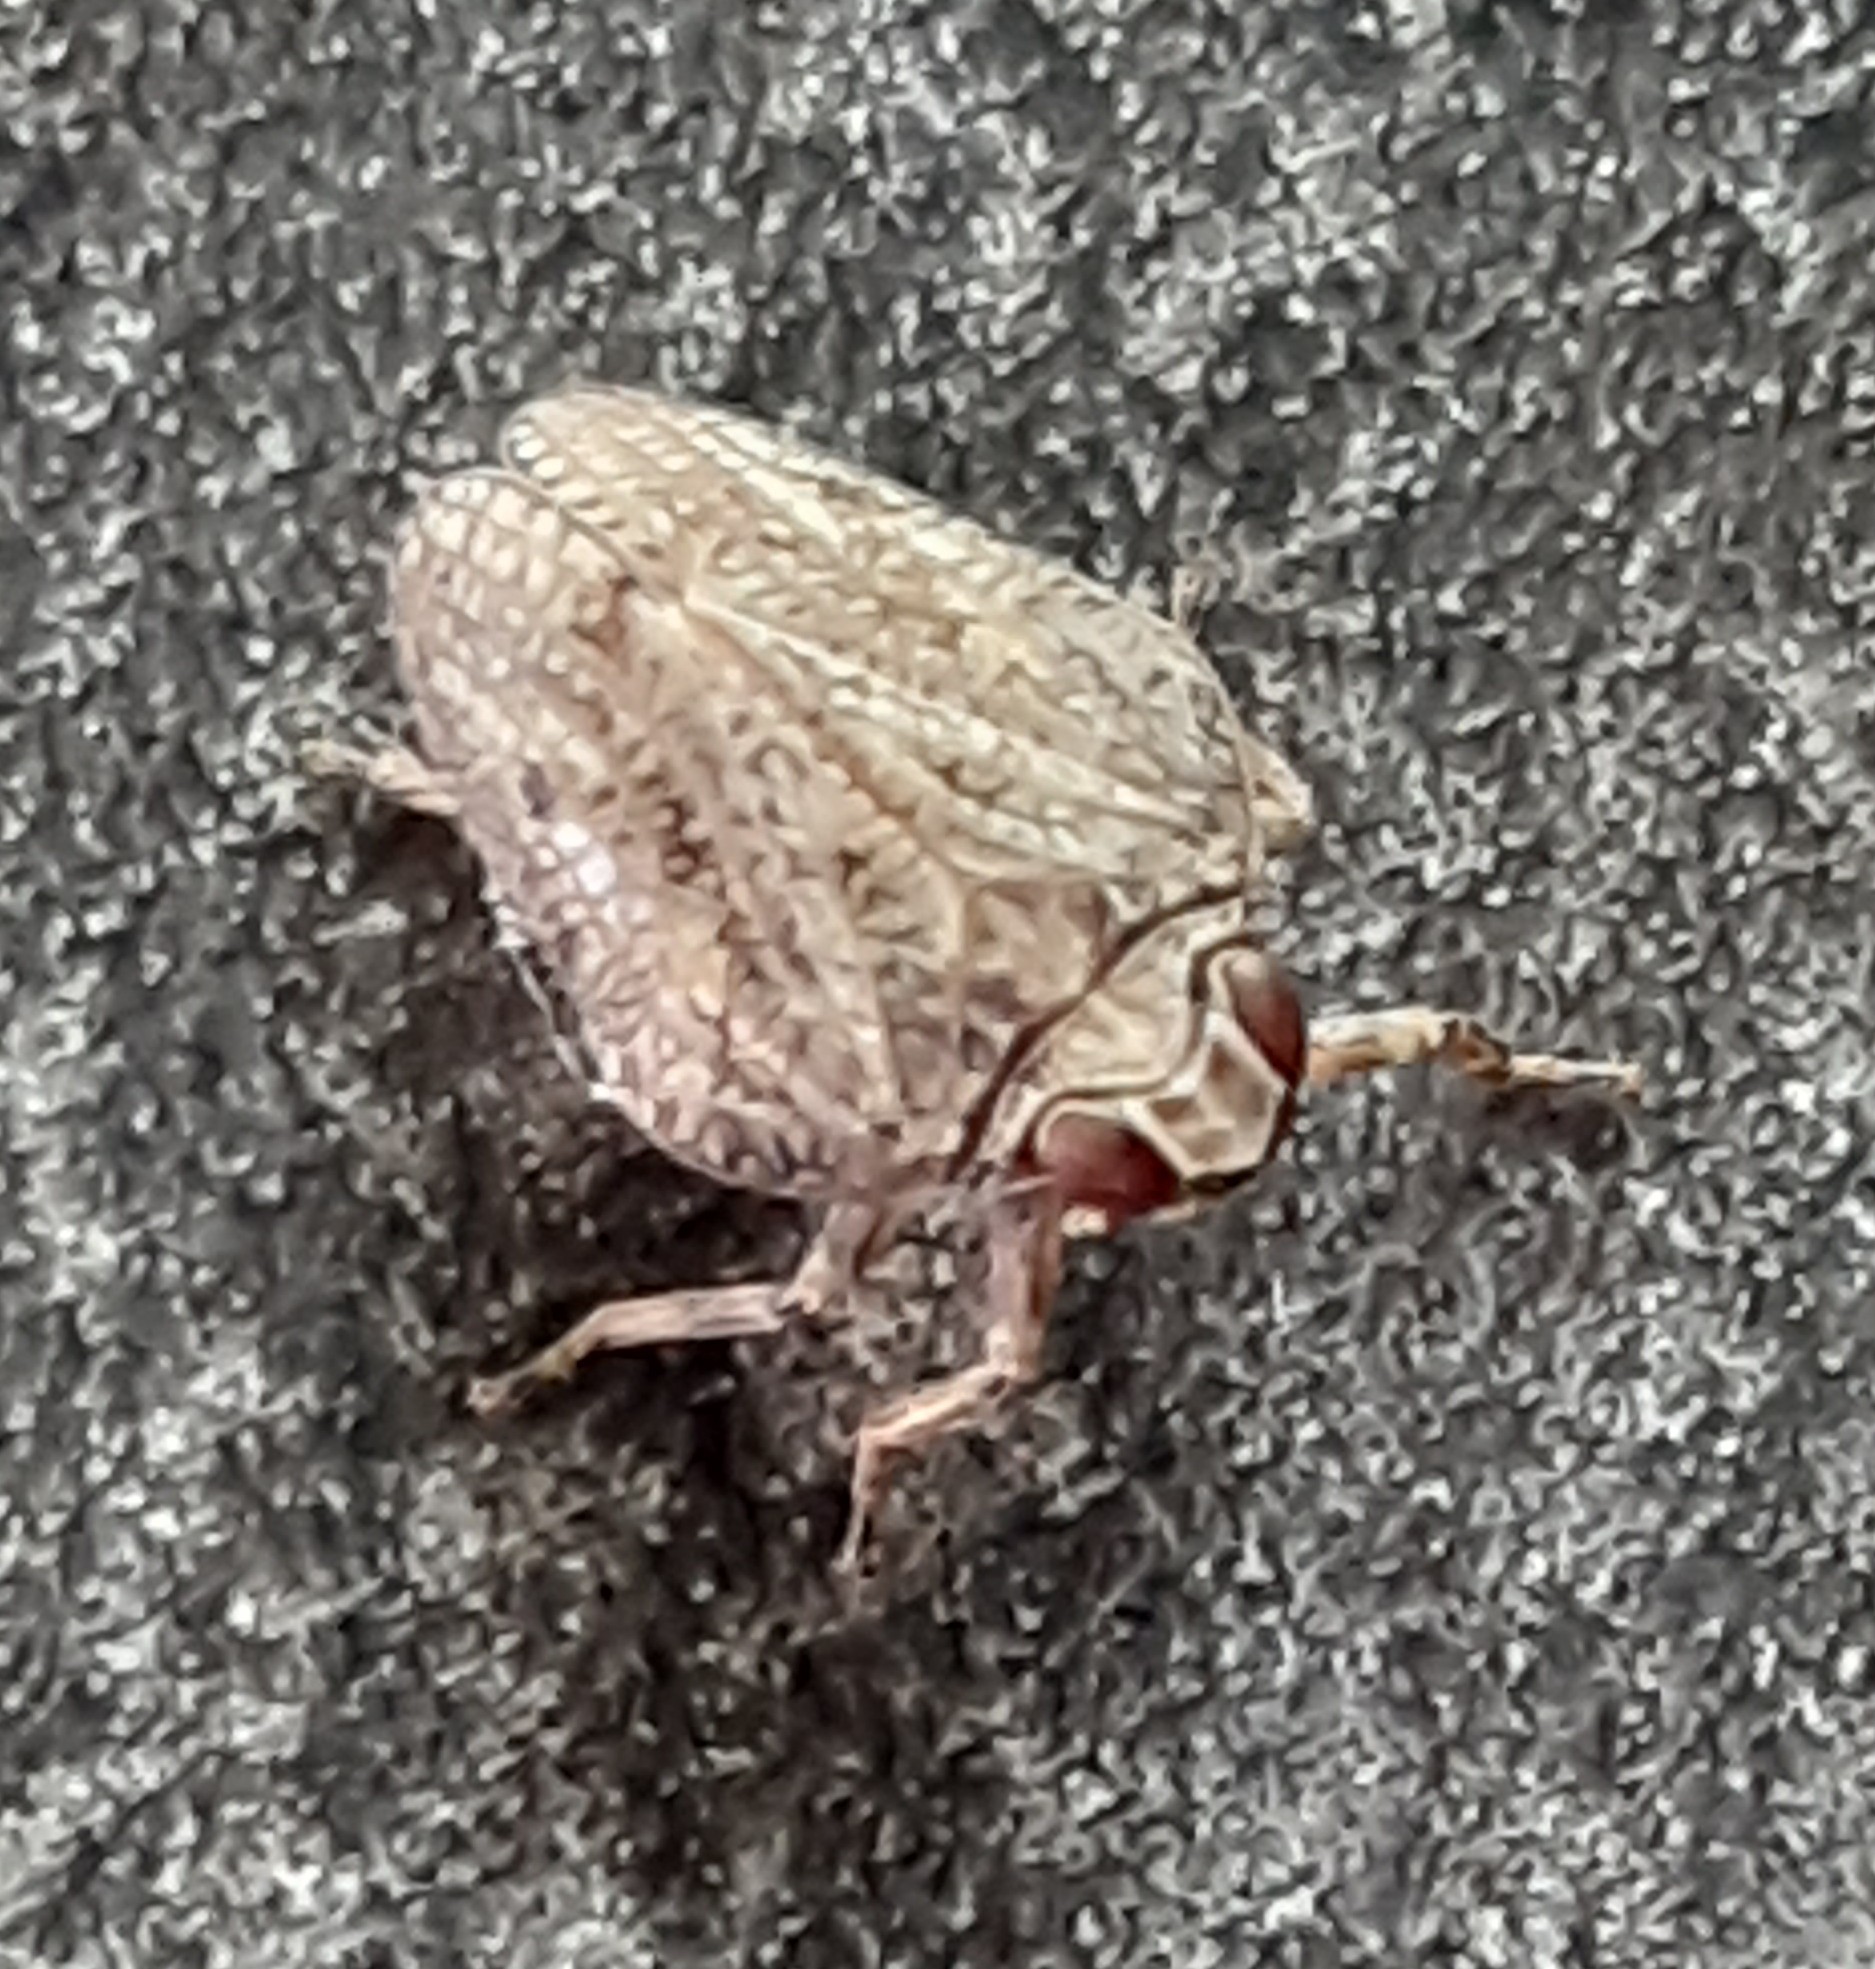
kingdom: Animalia
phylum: Arthropoda
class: Insecta
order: Hemiptera
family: Issidae
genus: Issus
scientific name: Issus coleoptratus
